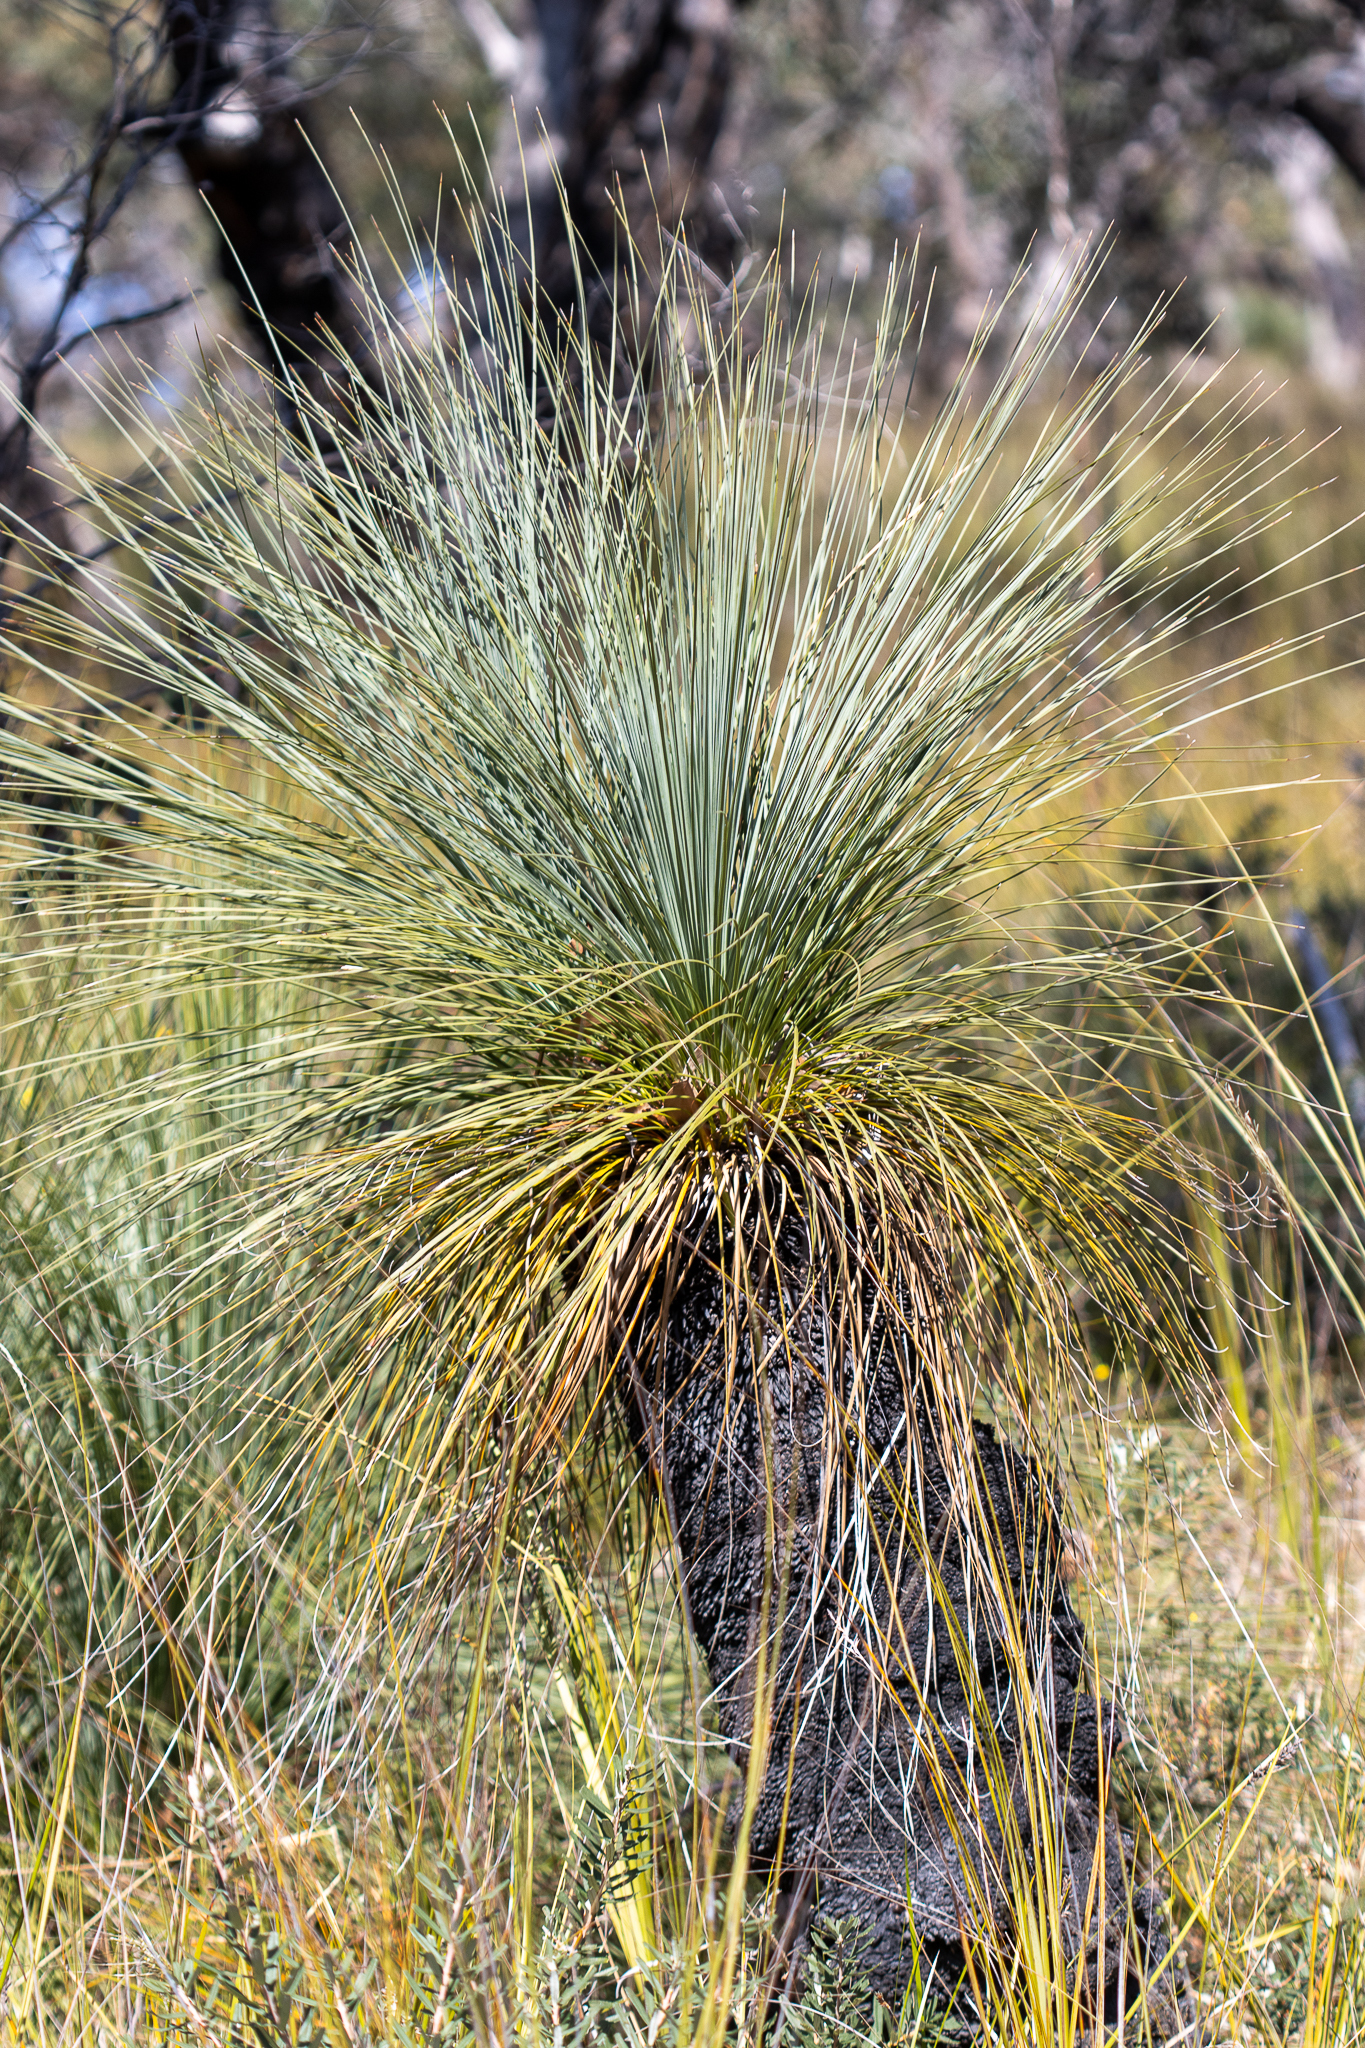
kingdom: Plantae
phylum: Tracheophyta
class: Liliopsida
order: Asparagales
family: Asphodelaceae
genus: Xanthorrhoea
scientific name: Xanthorrhoea australis
